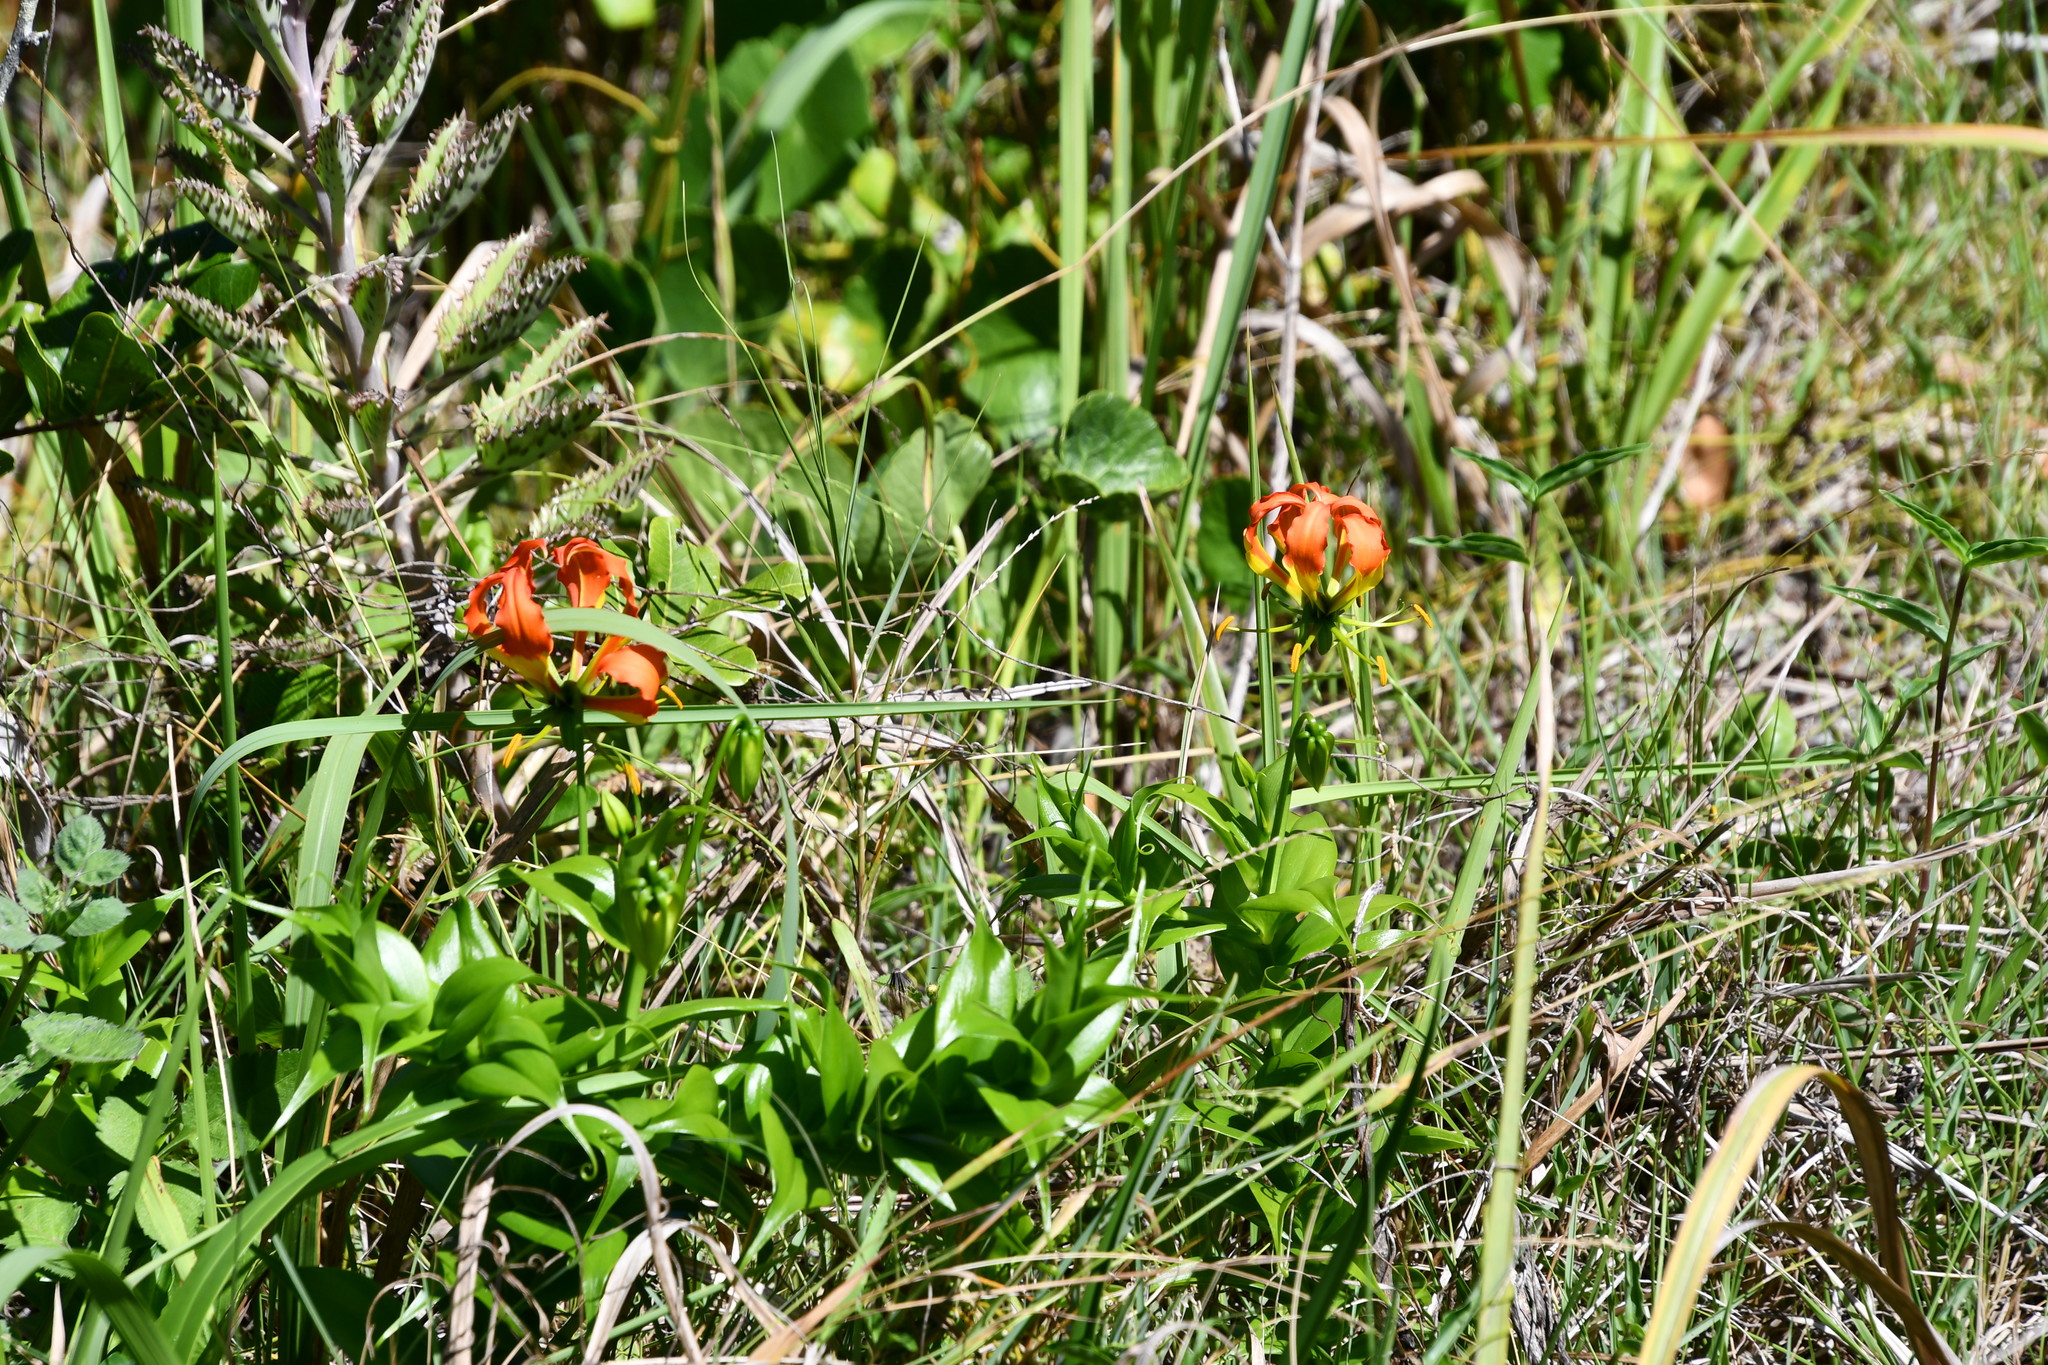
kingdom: Plantae
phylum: Tracheophyta
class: Liliopsida
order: Liliales
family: Colchicaceae
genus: Gloriosa
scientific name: Gloriosa superba
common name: Flame lily
